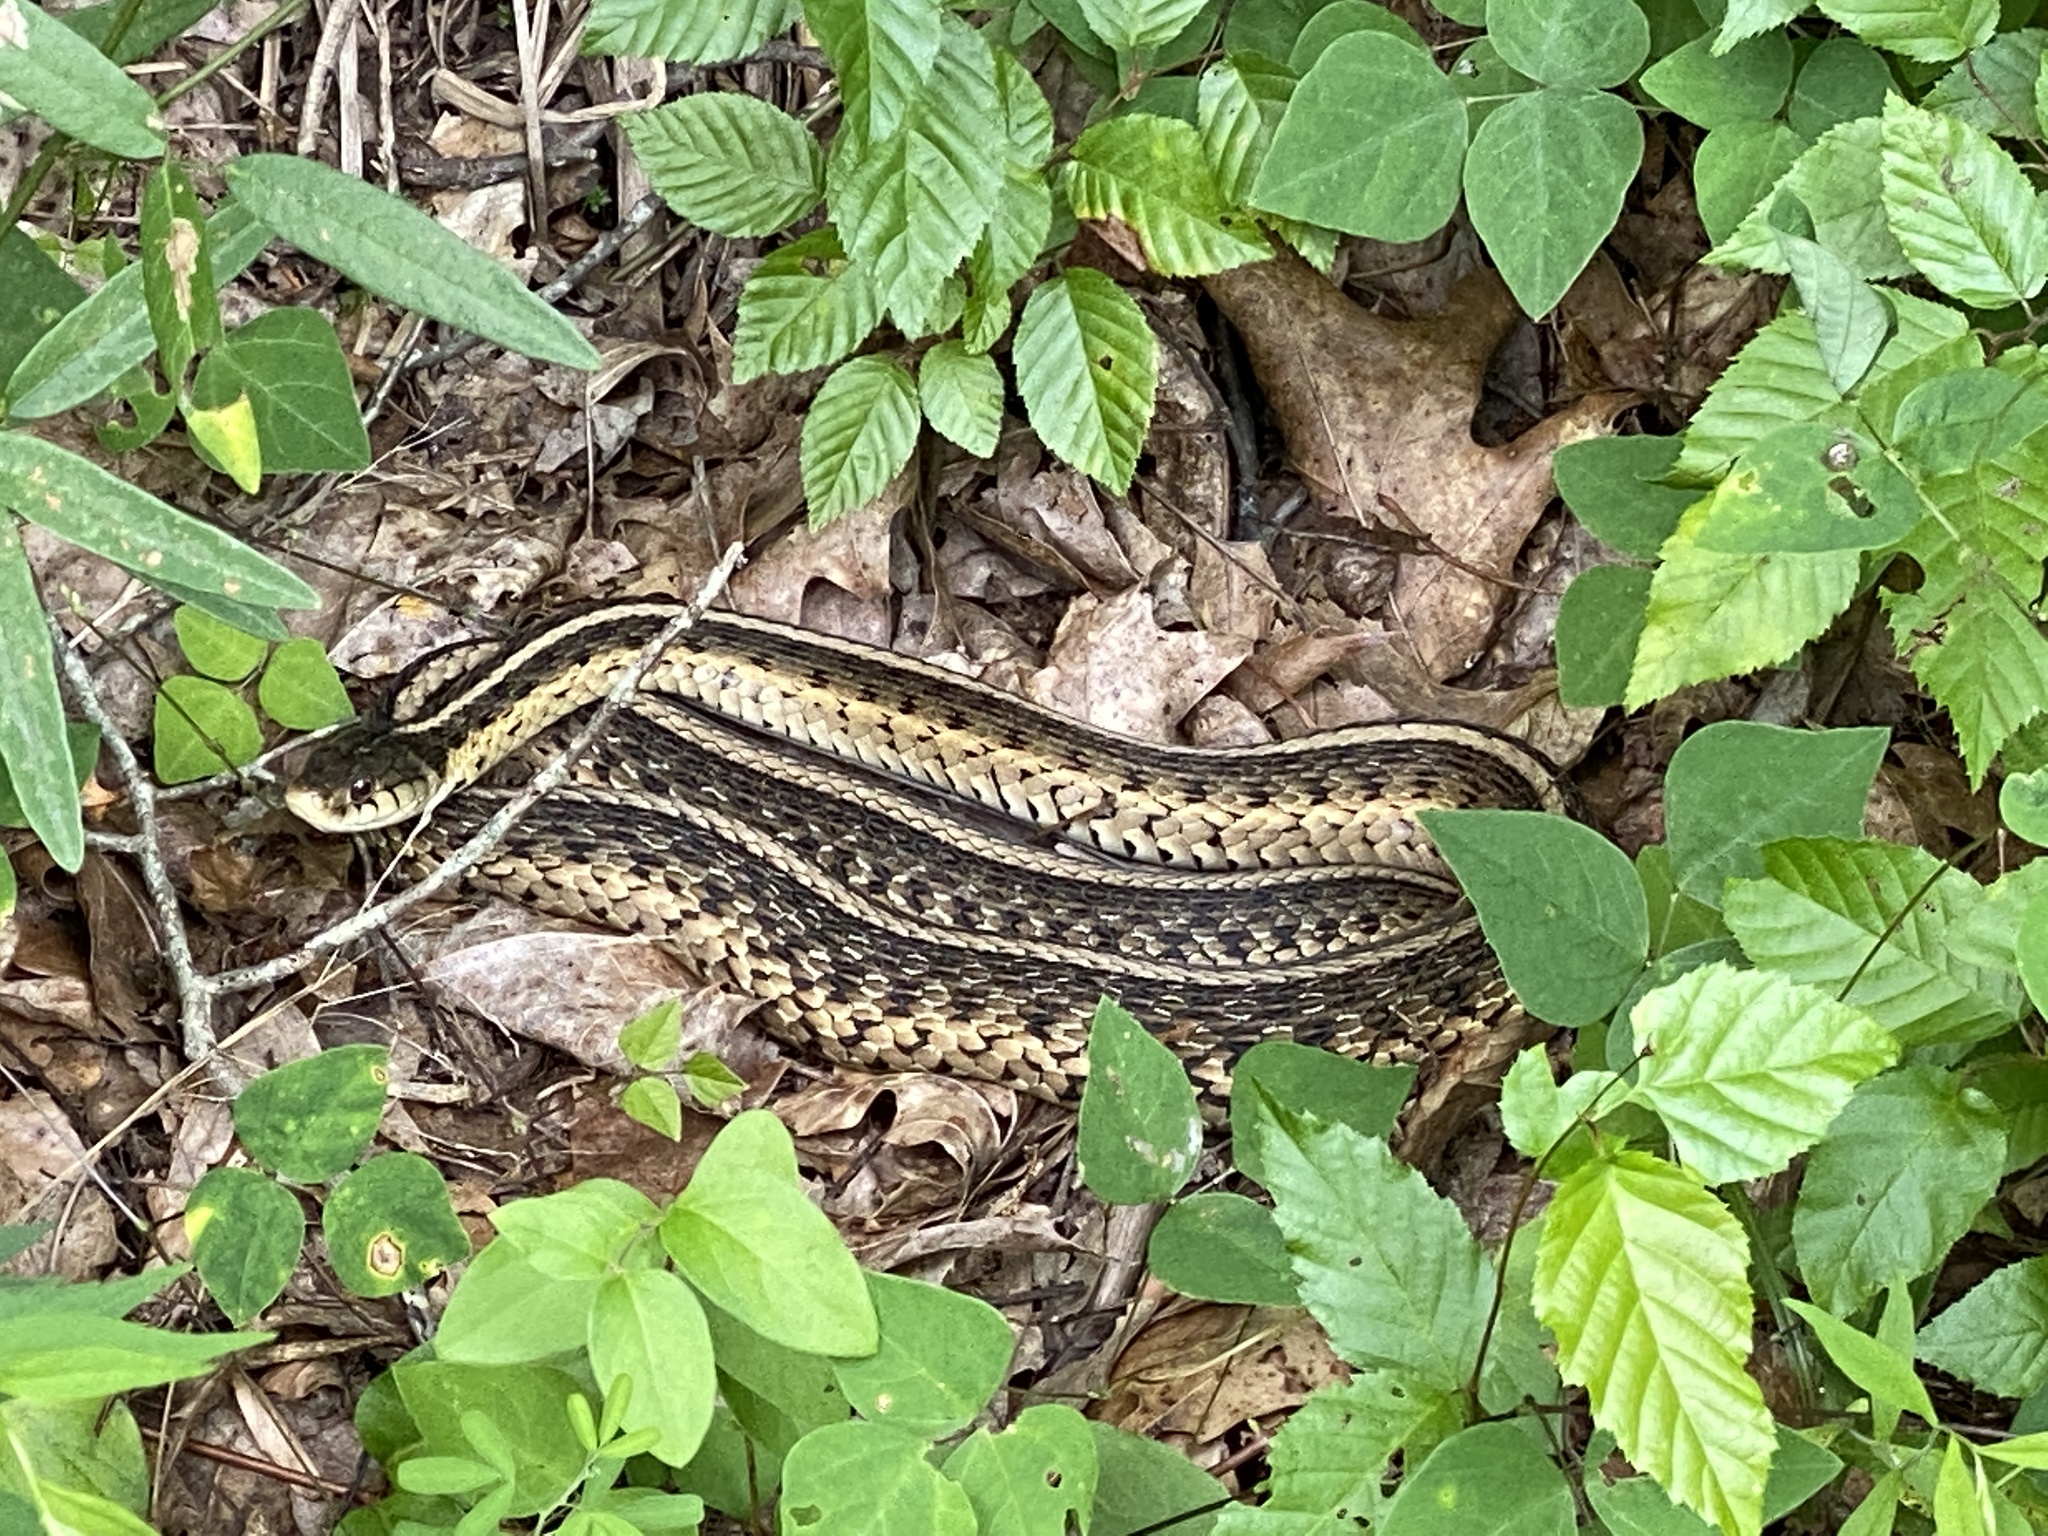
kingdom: Animalia
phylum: Chordata
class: Squamata
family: Colubridae
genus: Thamnophis
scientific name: Thamnophis sirtalis
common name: Common garter snake
